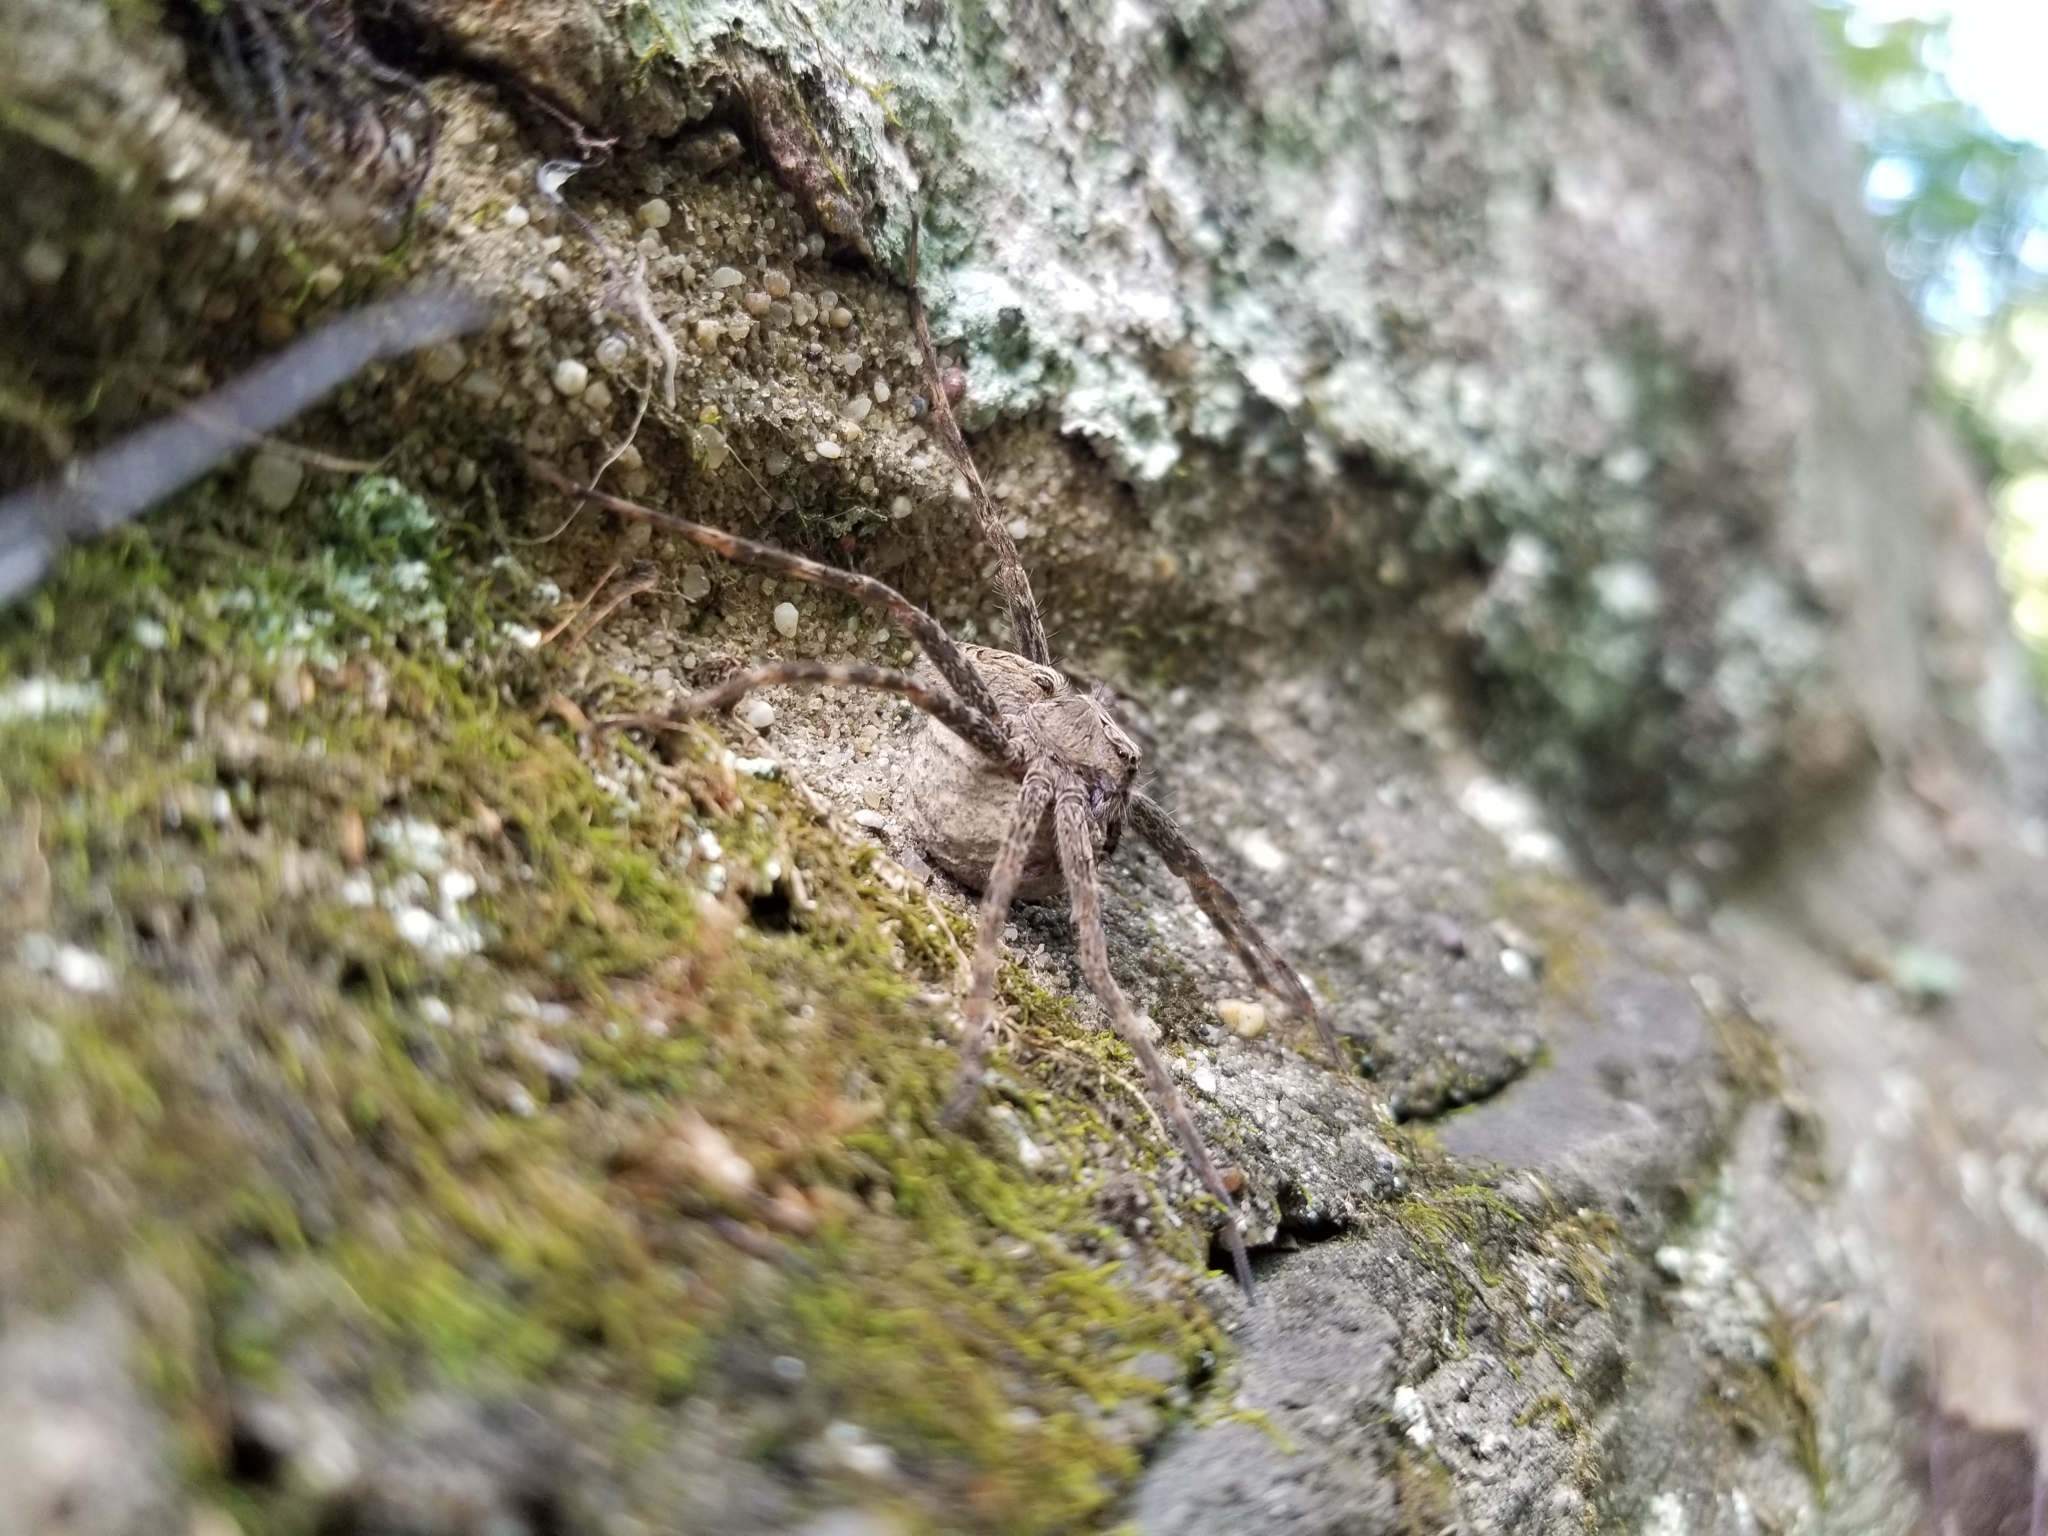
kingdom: Animalia
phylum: Arthropoda
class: Arachnida
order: Araneae
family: Pisauridae
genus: Dolomedes
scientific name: Dolomedes scriptus
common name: Striped fishing spider
